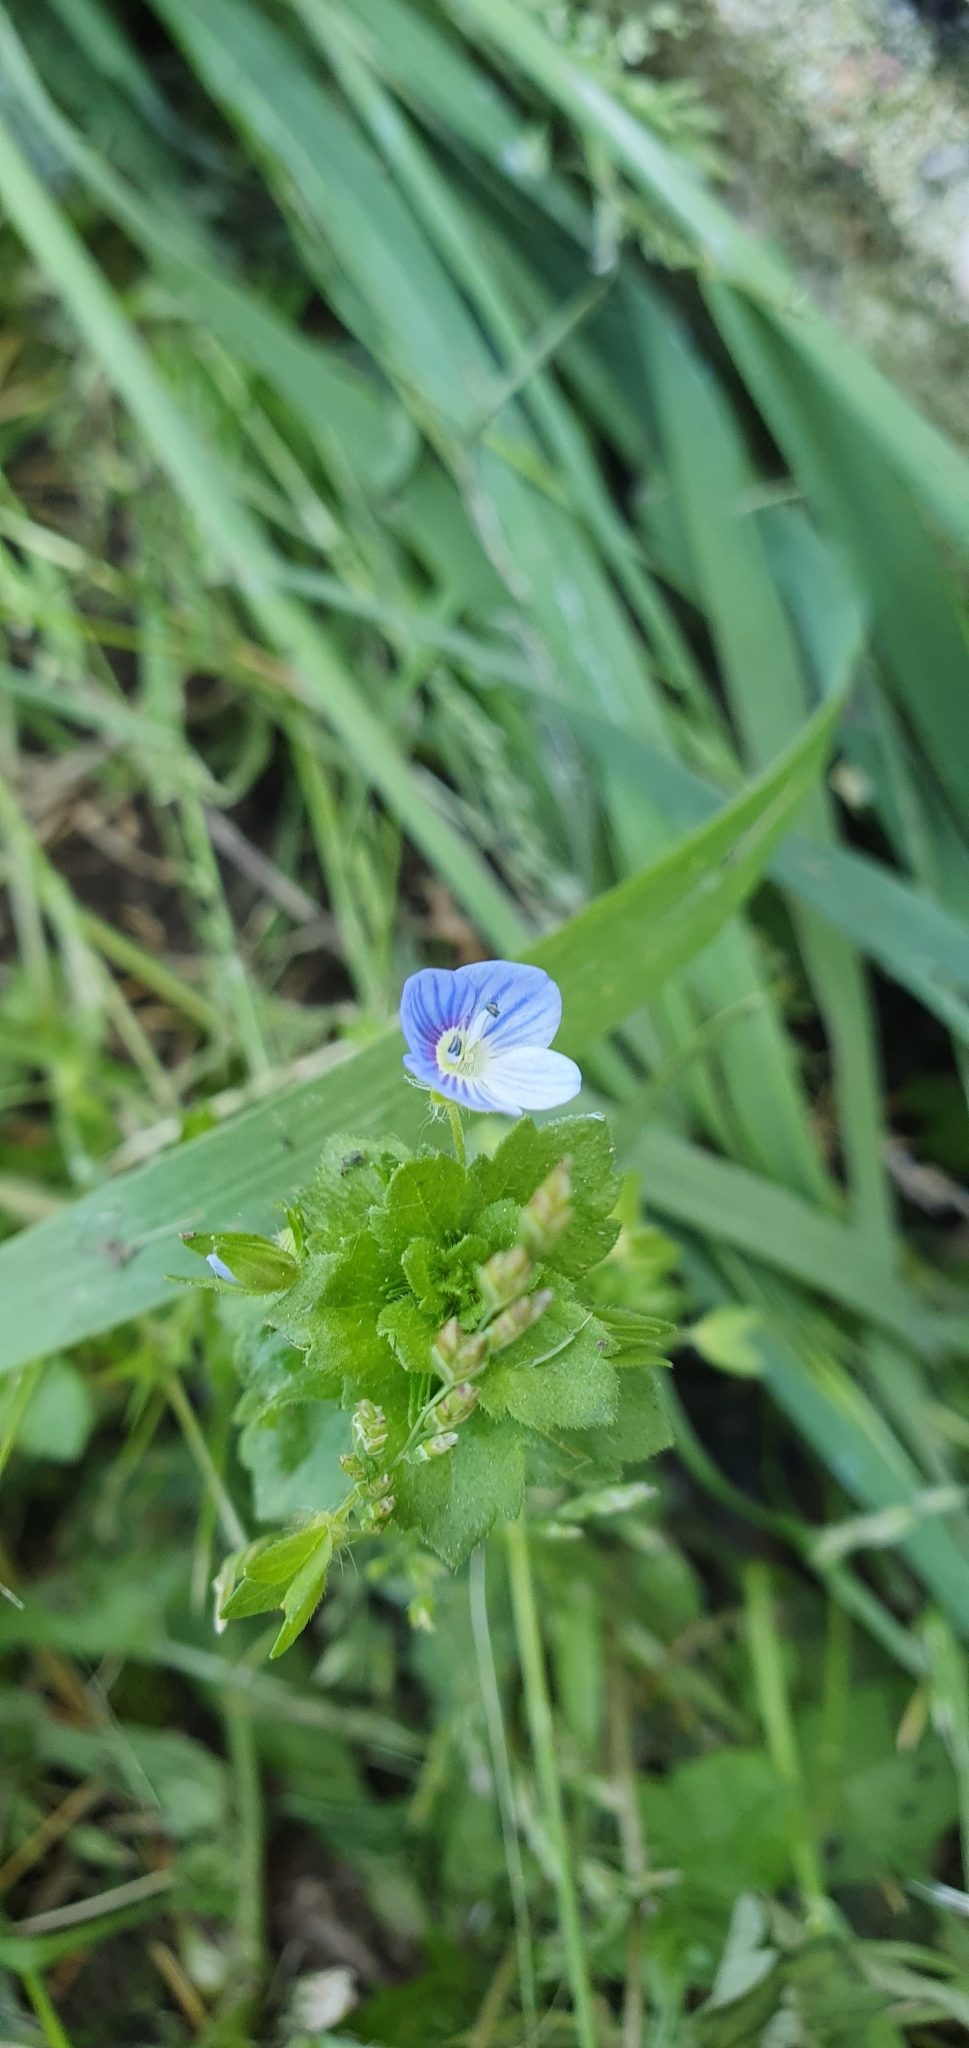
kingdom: Plantae
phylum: Tracheophyta
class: Magnoliopsida
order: Lamiales
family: Plantaginaceae
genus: Veronica
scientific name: Veronica persica
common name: Common field-speedwell
